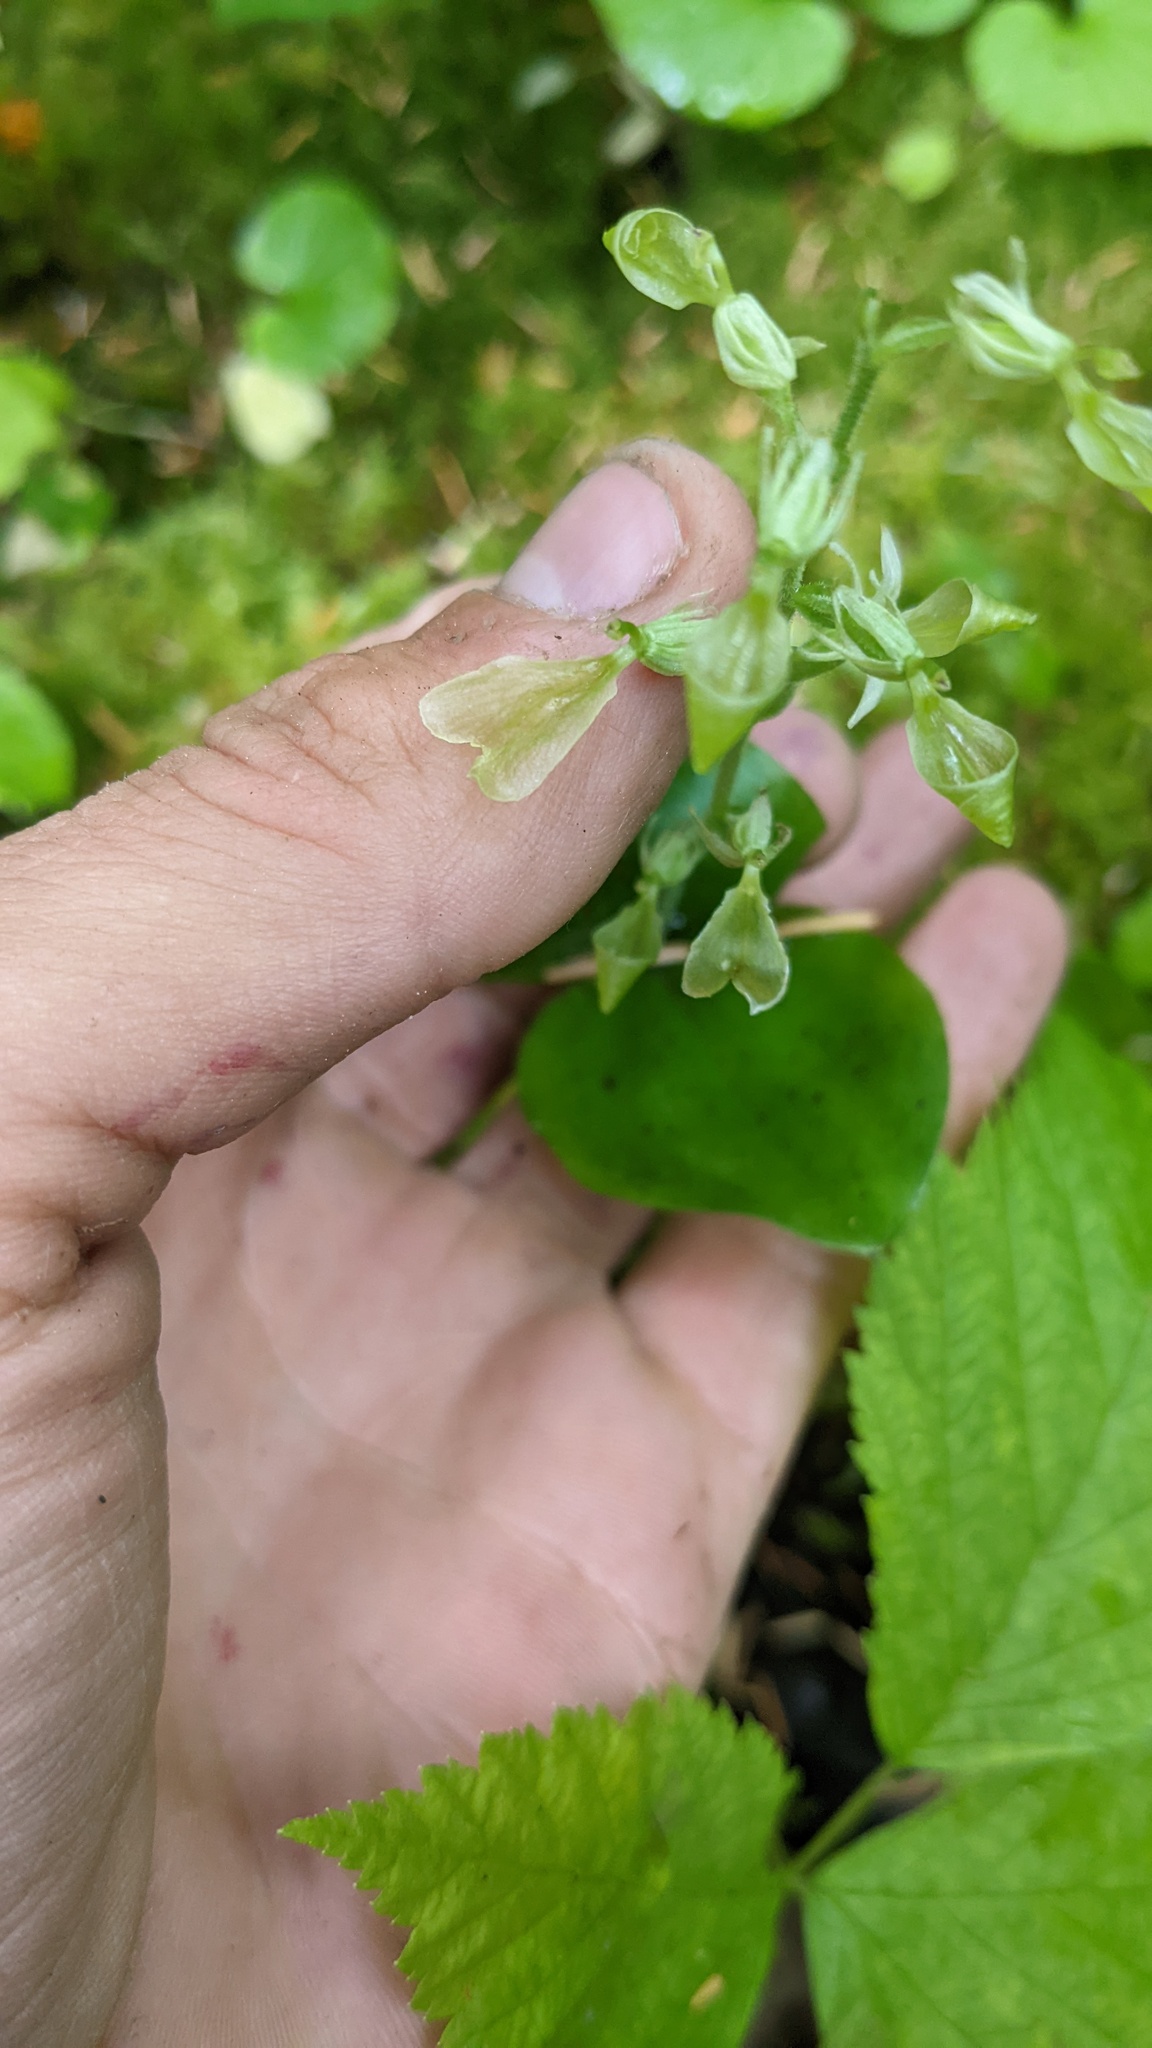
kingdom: Plantae
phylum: Tracheophyta
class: Liliopsida
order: Asparagales
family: Orchidaceae
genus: Neottia
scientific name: Neottia convallarioides
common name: Broadleaf twayblade
